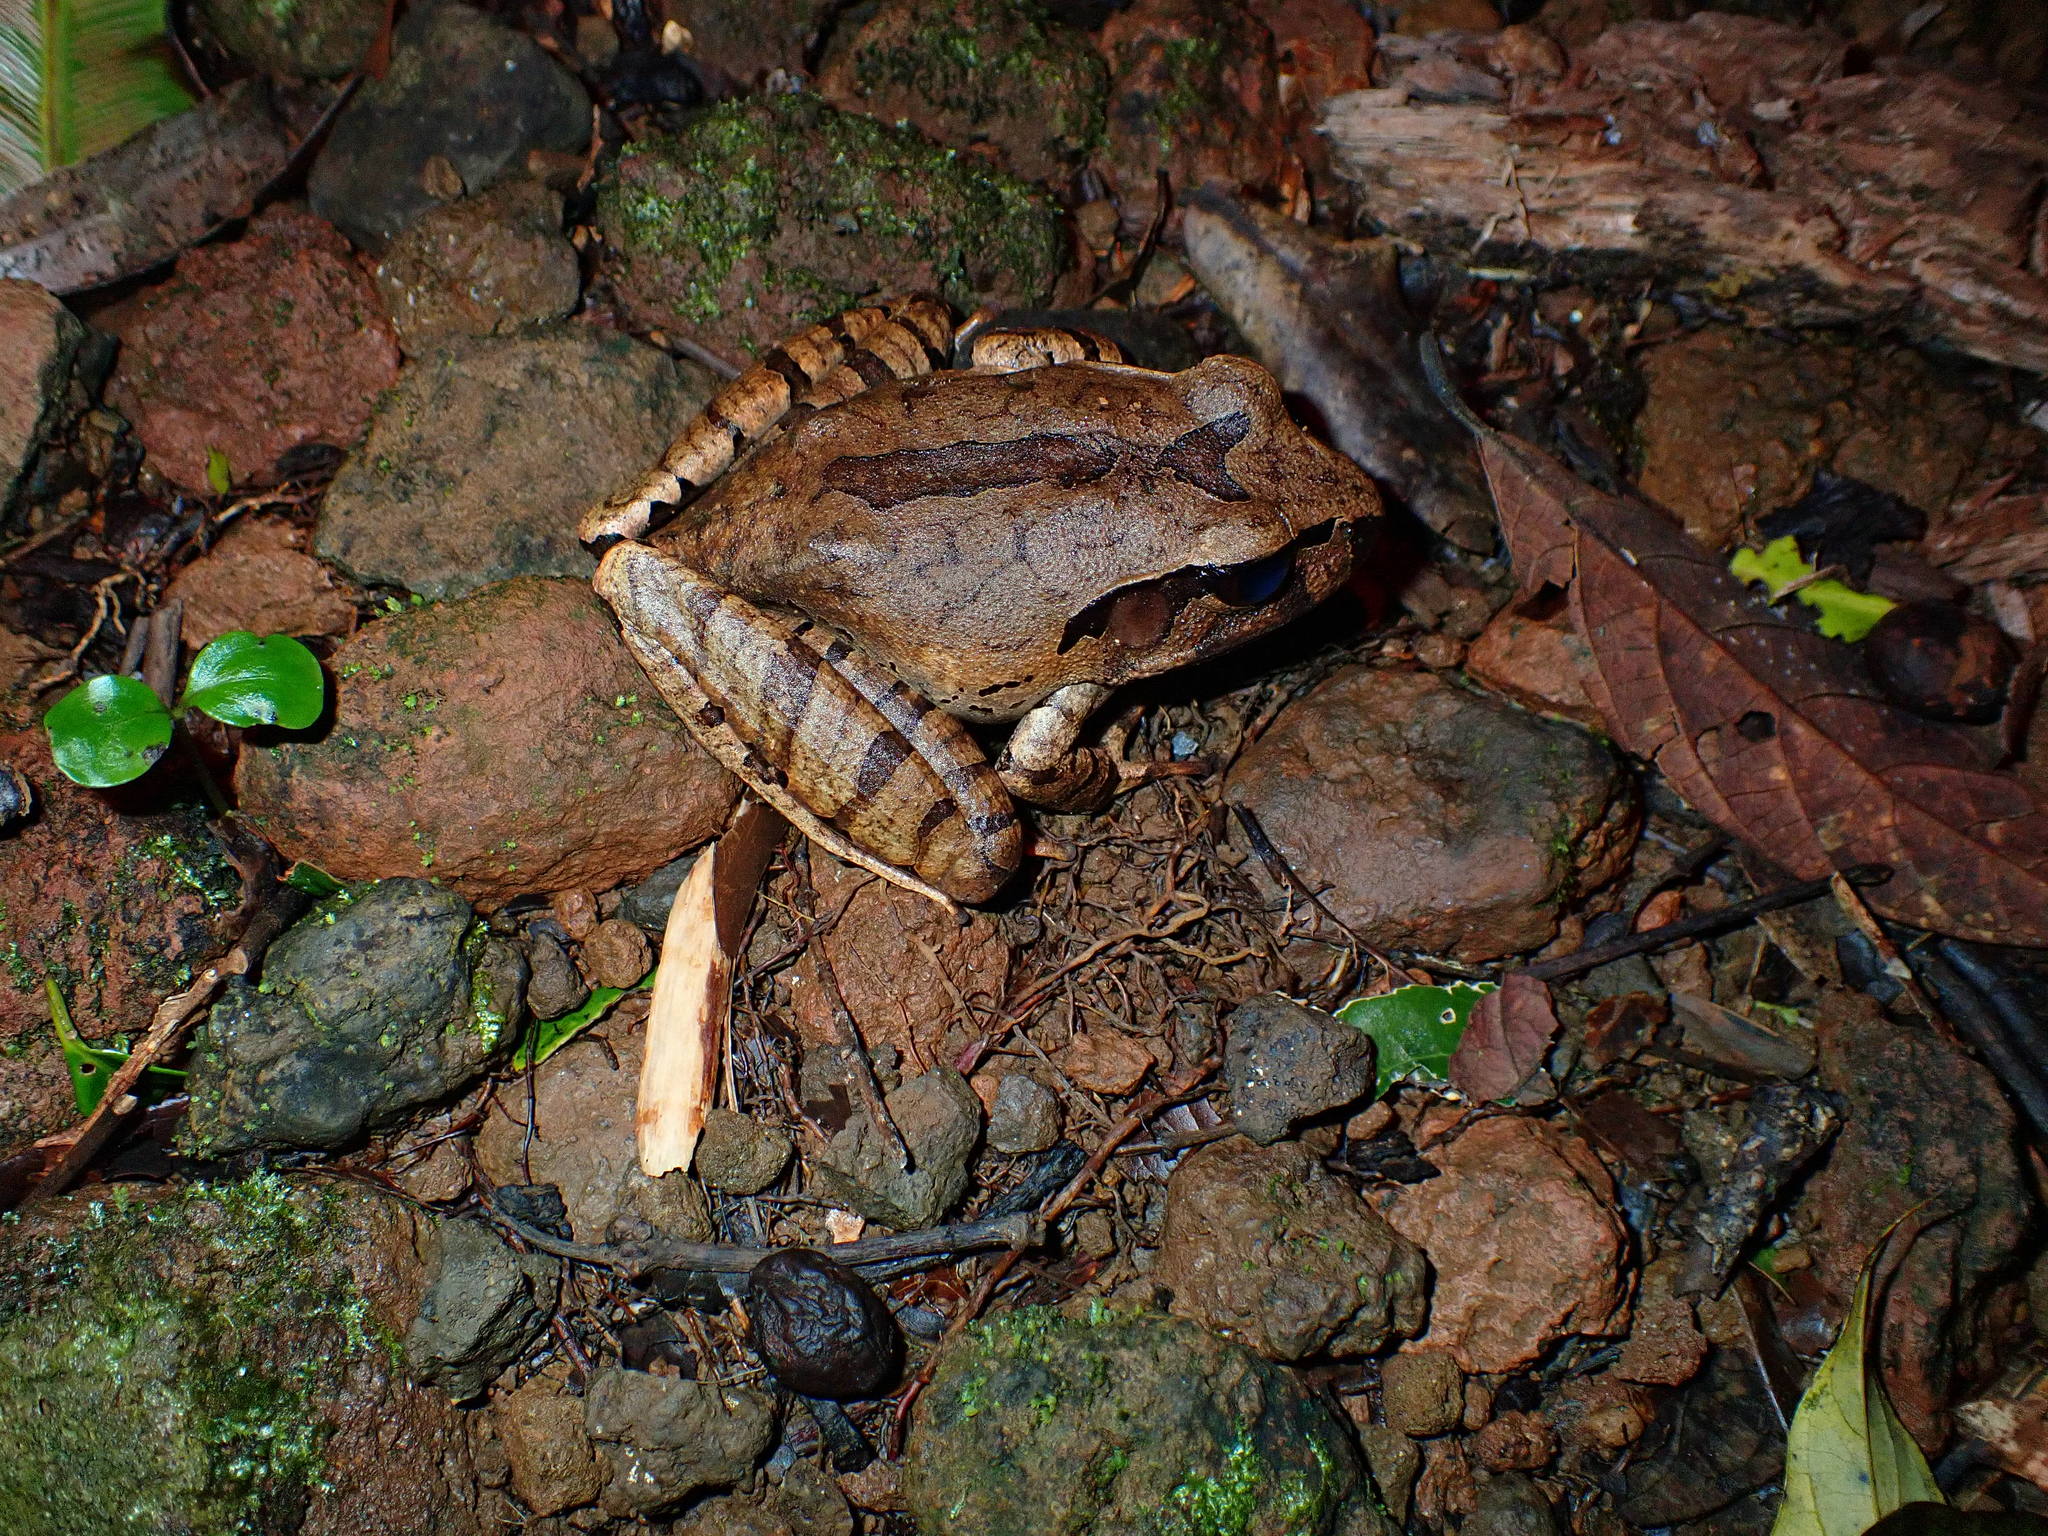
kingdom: Animalia
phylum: Chordata
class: Amphibia
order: Anura
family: Myobatrachidae
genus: Mixophyes
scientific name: Mixophyes coggeri
